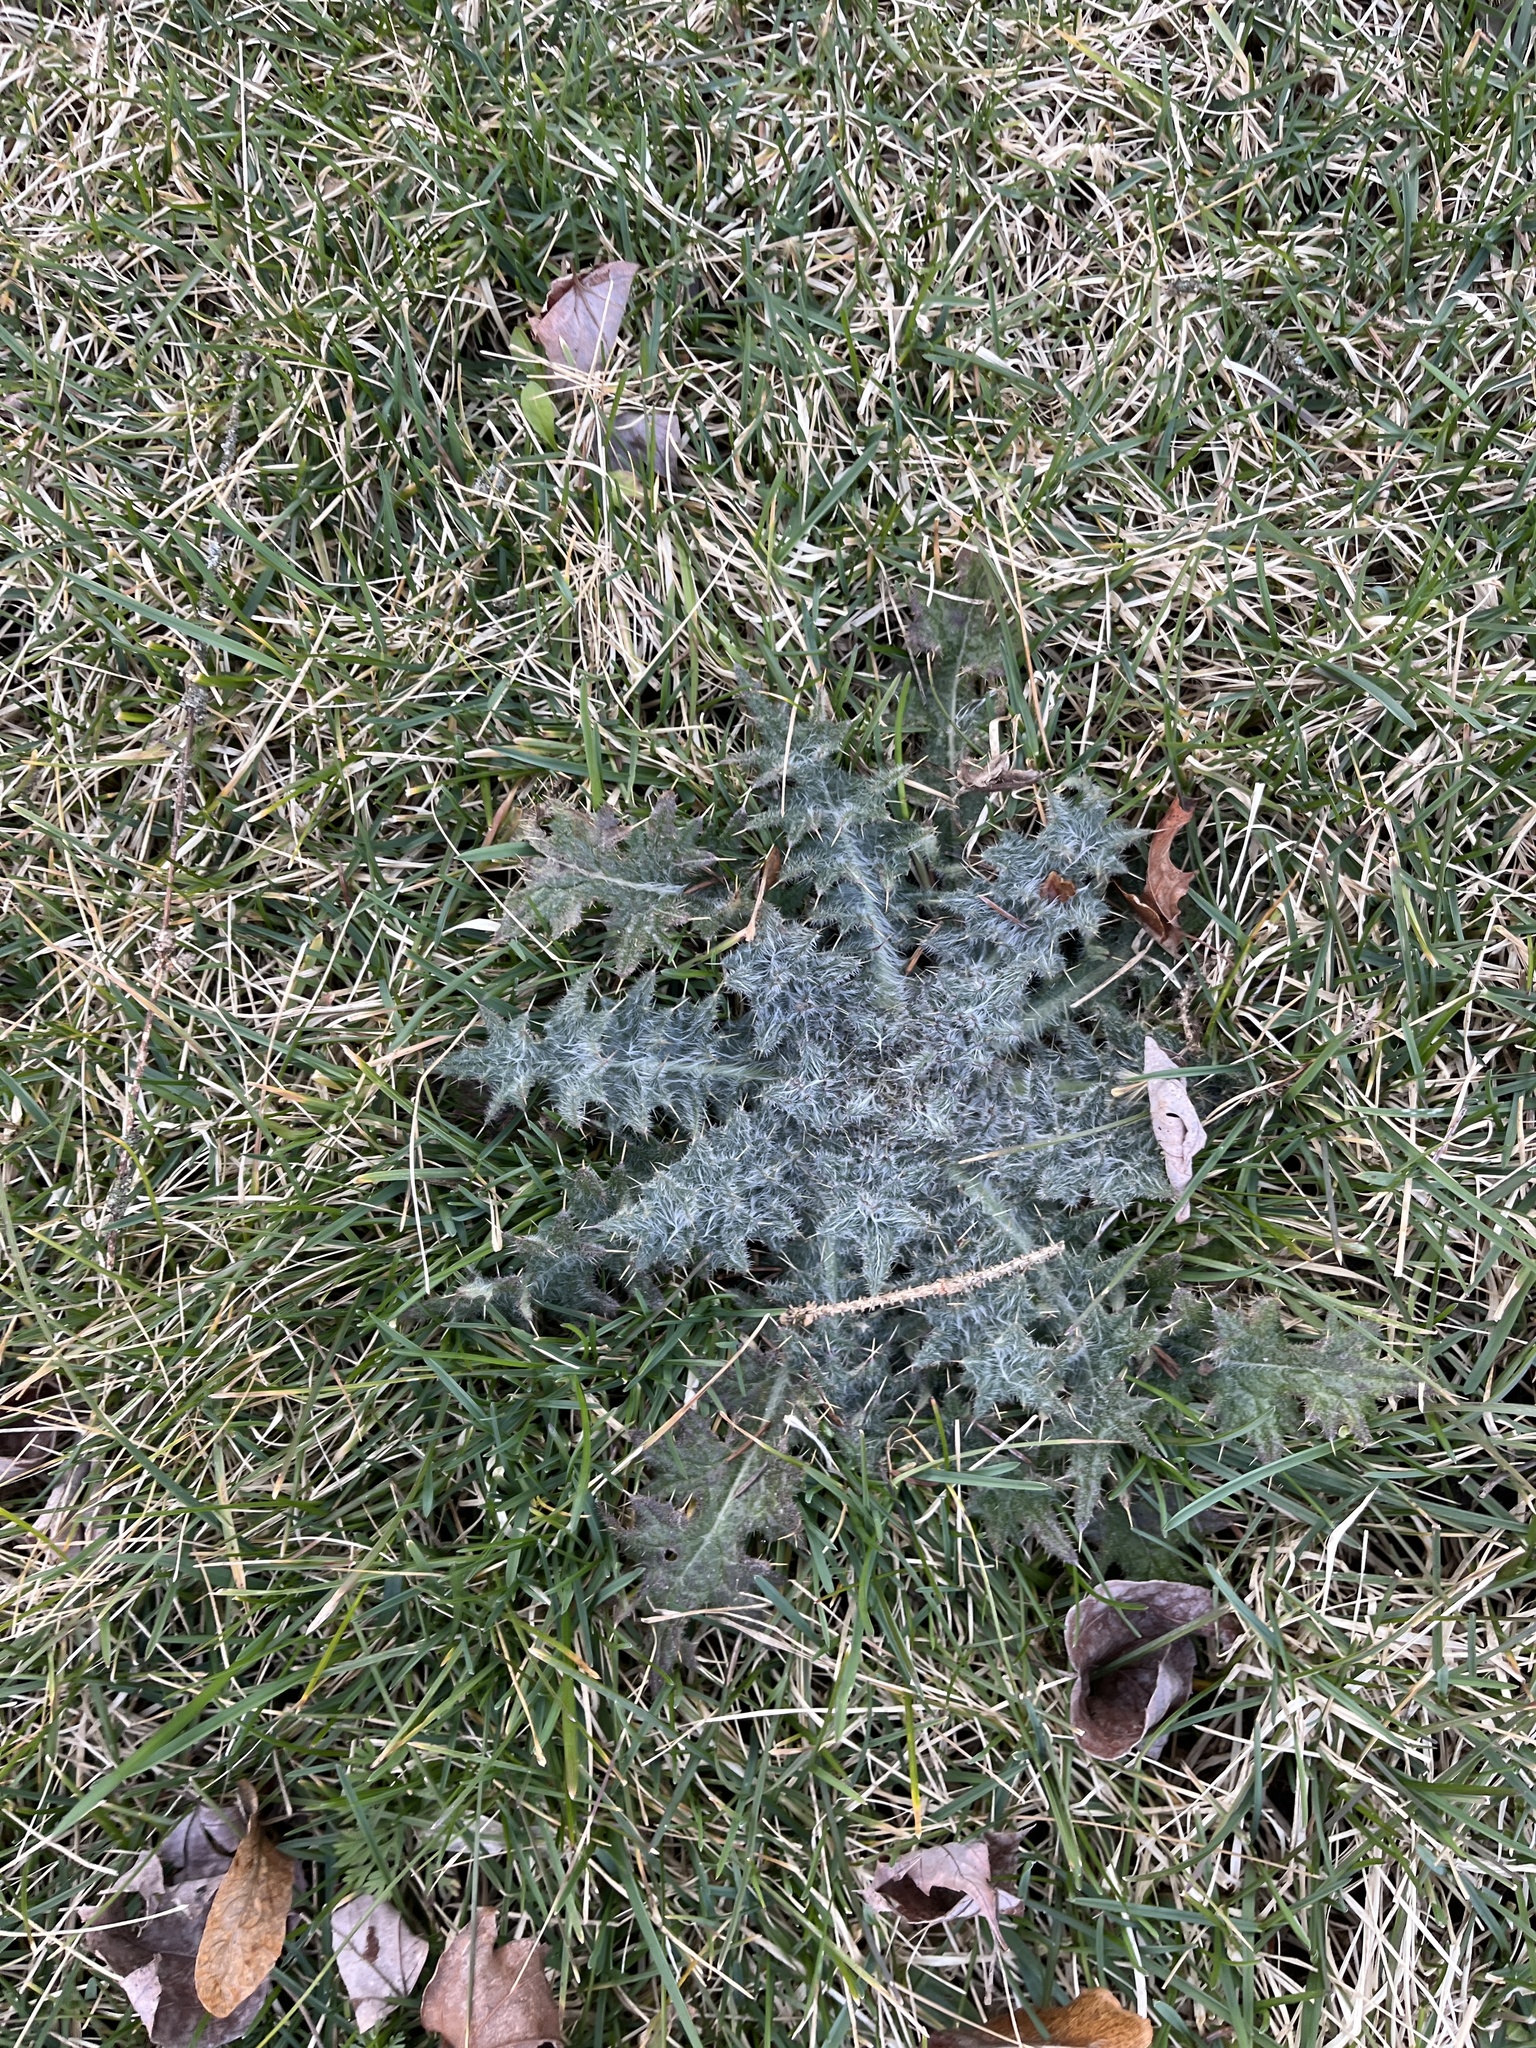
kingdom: Plantae
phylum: Tracheophyta
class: Magnoliopsida
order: Asterales
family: Asteraceae
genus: Cirsium
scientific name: Cirsium vulgare
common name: Bull thistle
